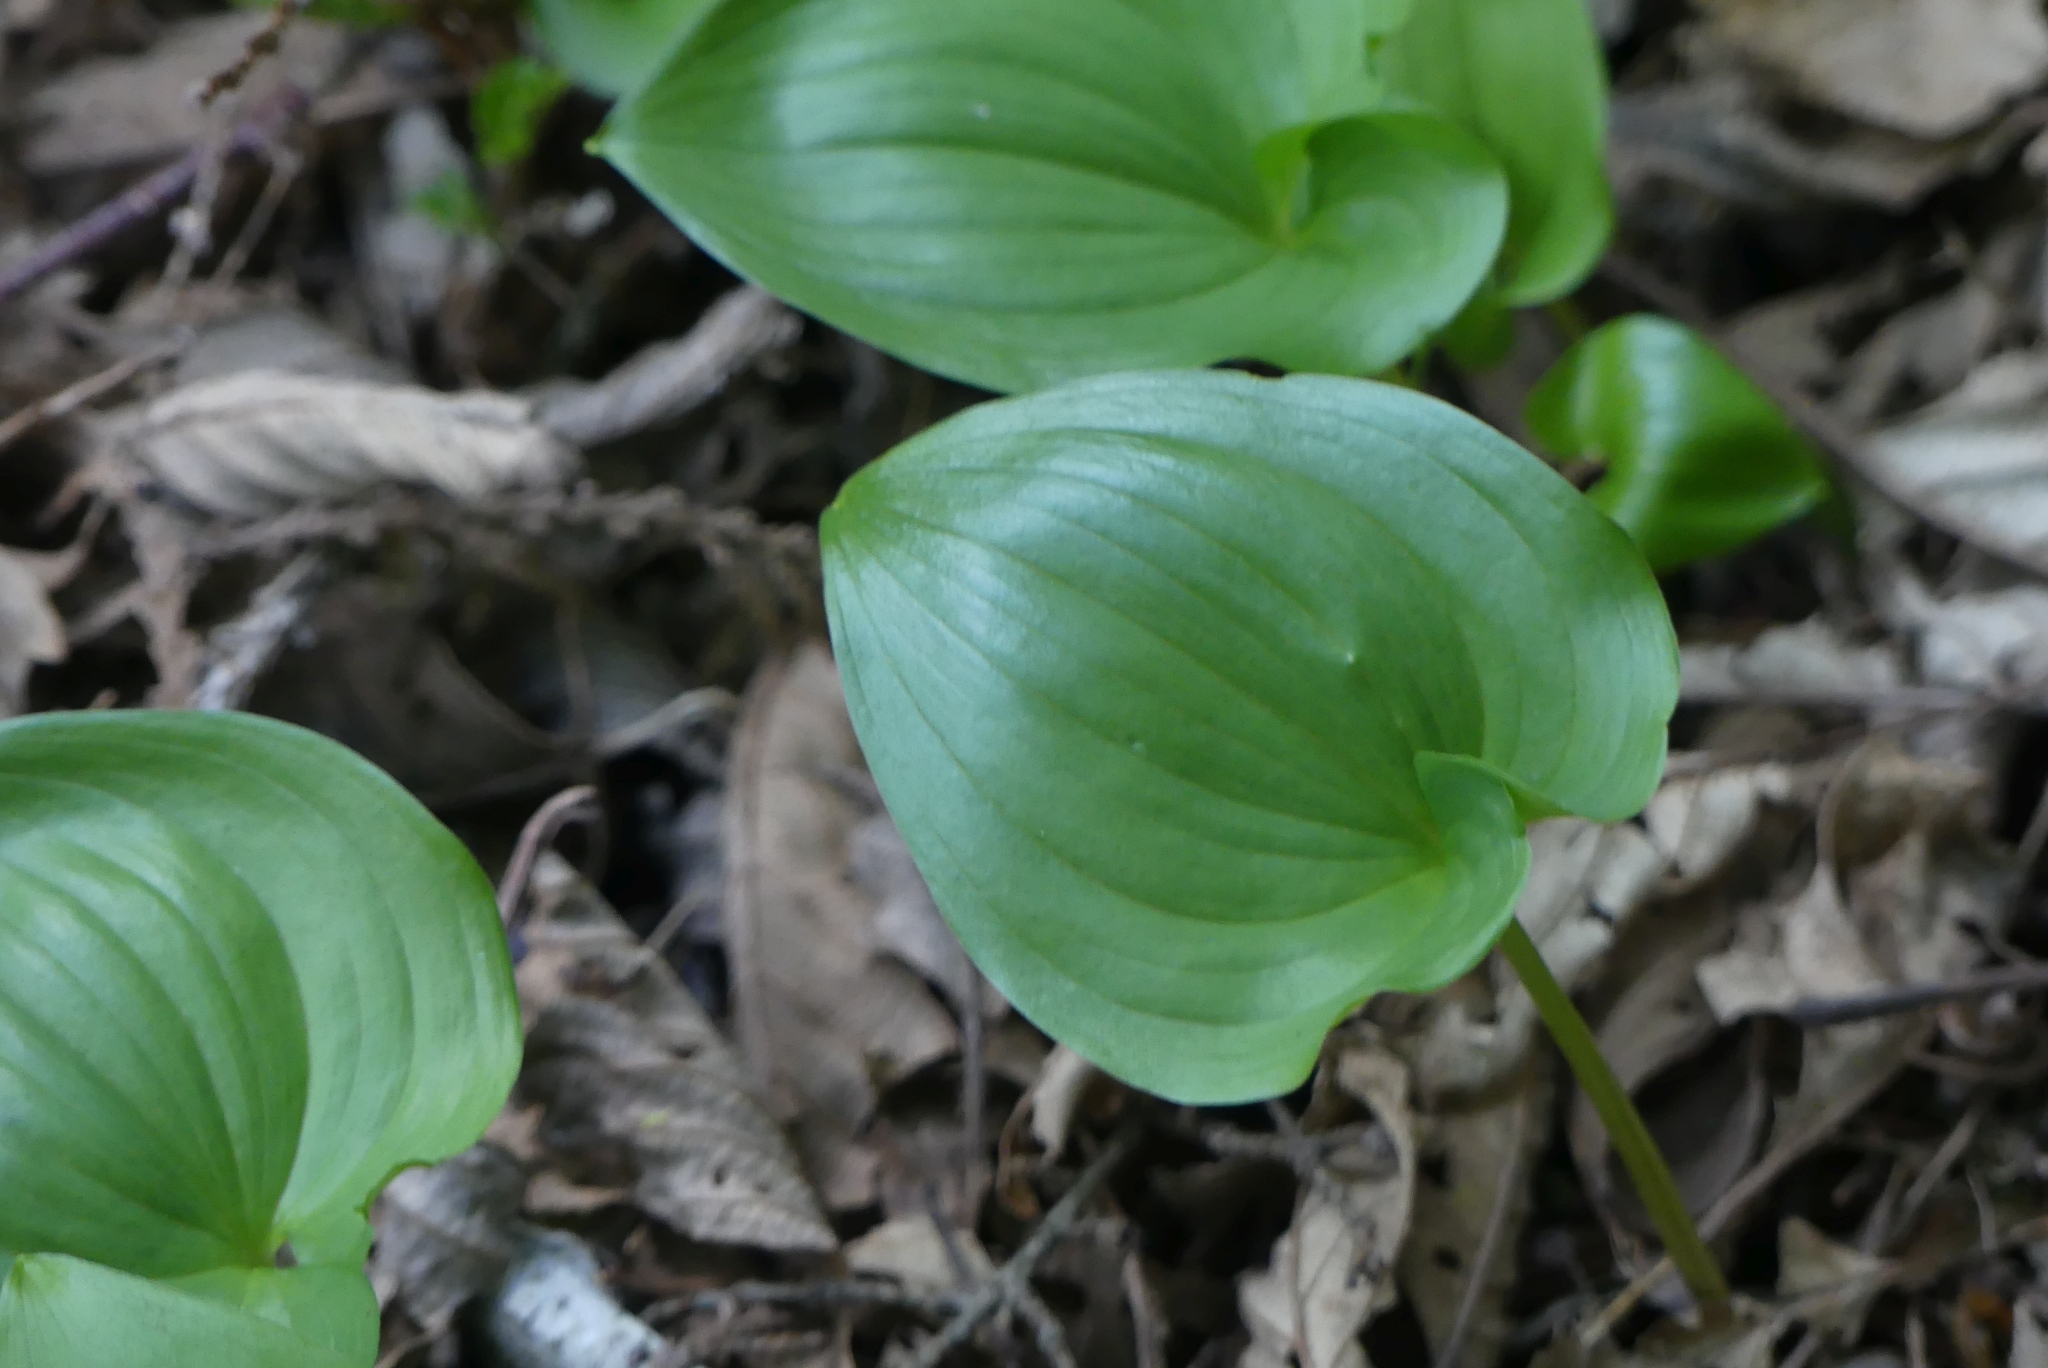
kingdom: Plantae
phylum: Tracheophyta
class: Liliopsida
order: Asparagales
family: Asparagaceae
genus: Maianthemum
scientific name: Maianthemum dilatatum
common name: False lily-of-the-valley
